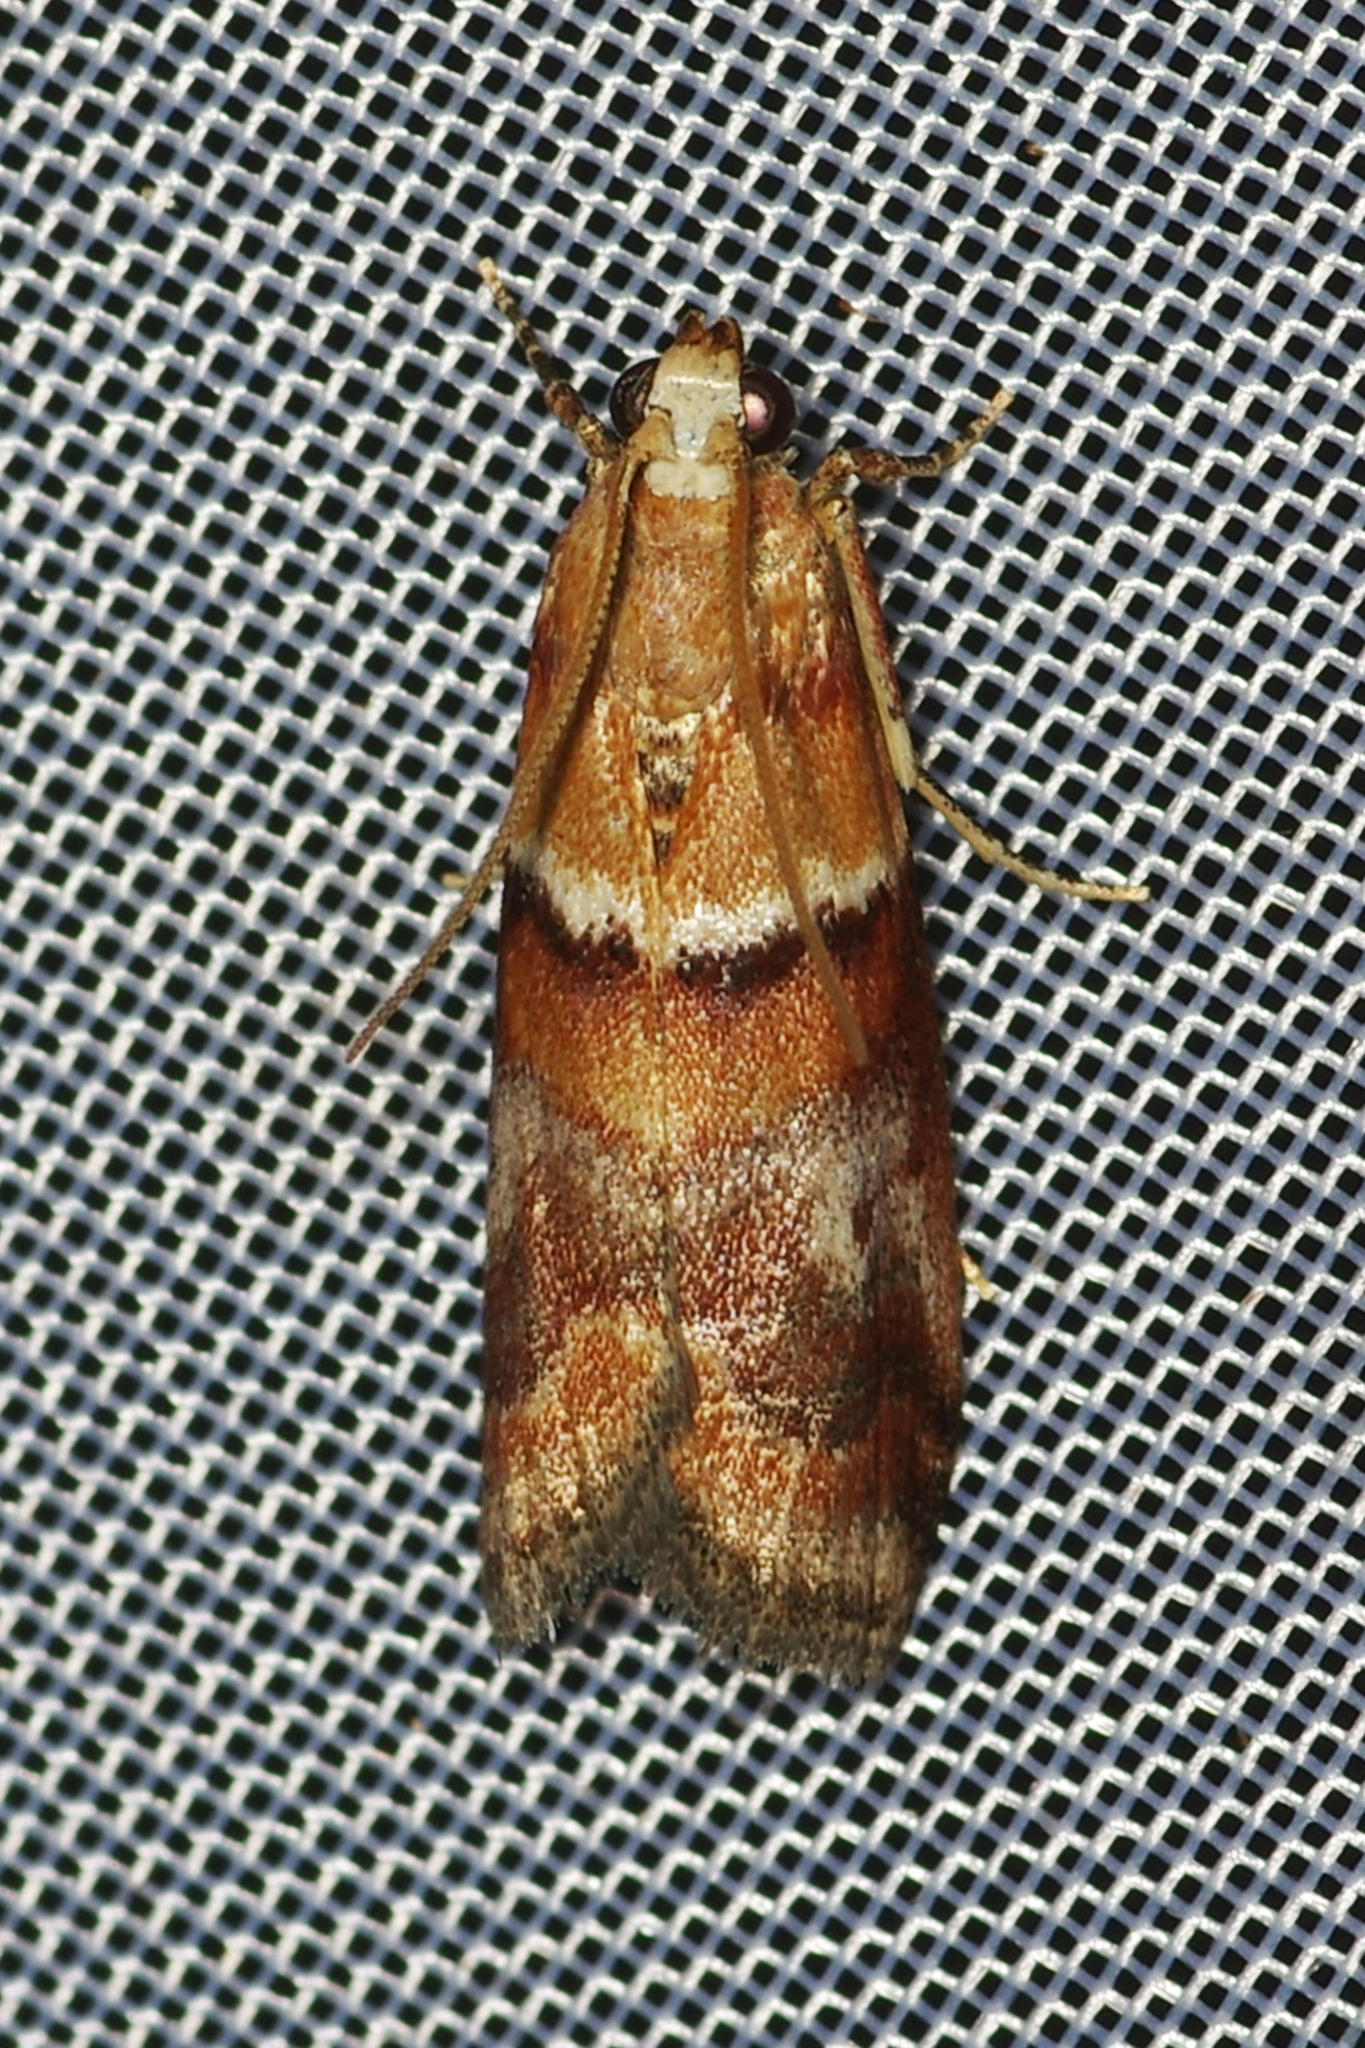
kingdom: Animalia
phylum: Arthropoda
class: Insecta
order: Lepidoptera
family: Pyralidae
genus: Acrobasis
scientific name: Acrobasis repandana
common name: Warted knot-horn
